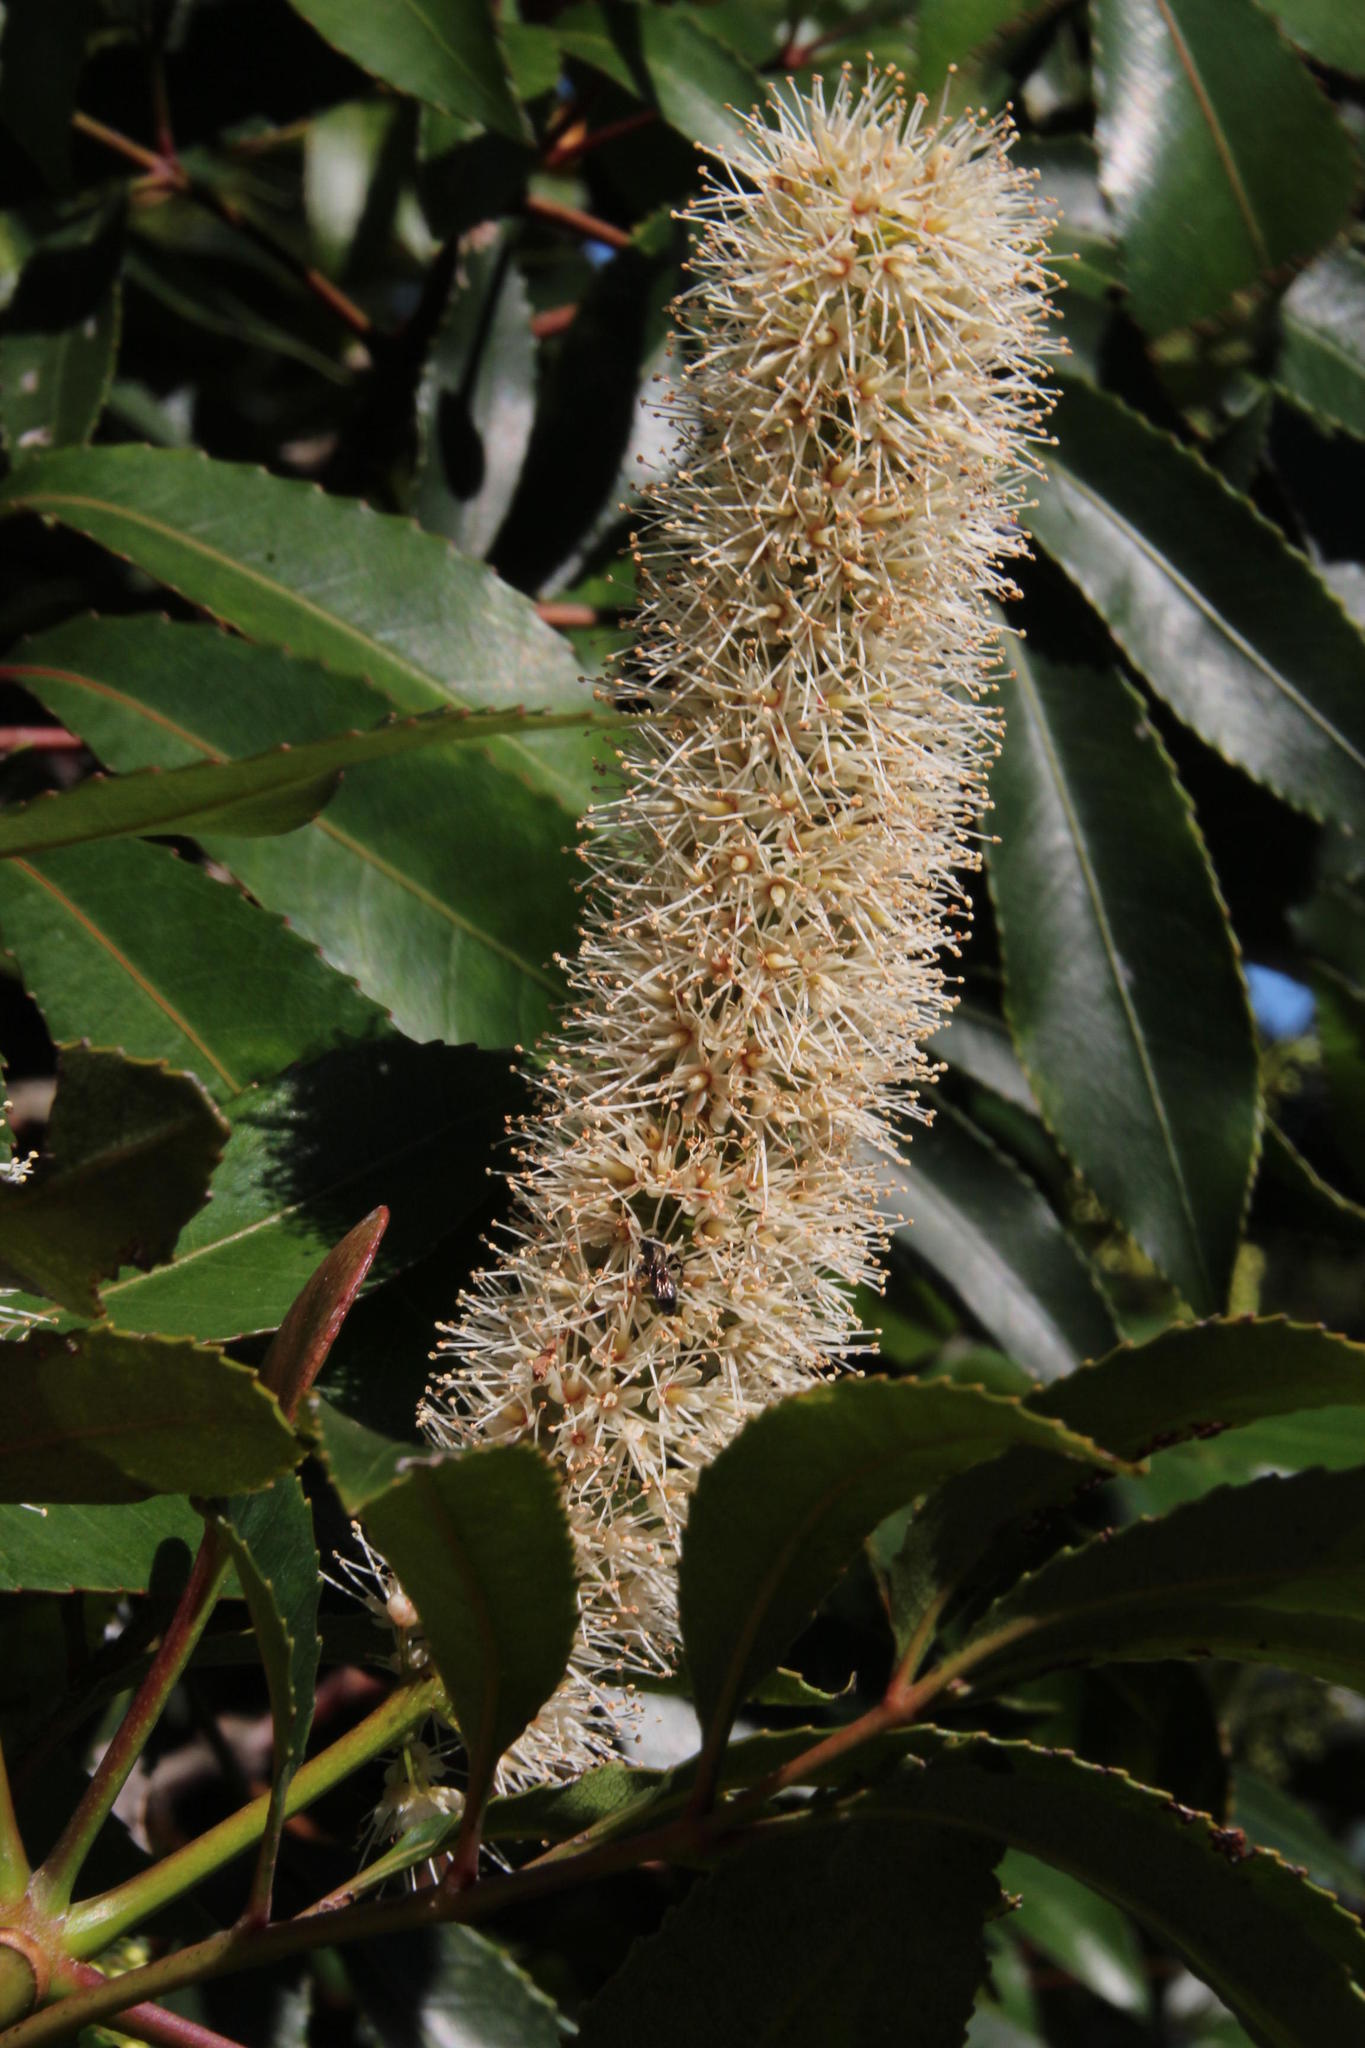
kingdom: Plantae
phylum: Tracheophyta
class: Magnoliopsida
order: Oxalidales
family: Cunoniaceae
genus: Cunonia
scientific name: Cunonia capensis
